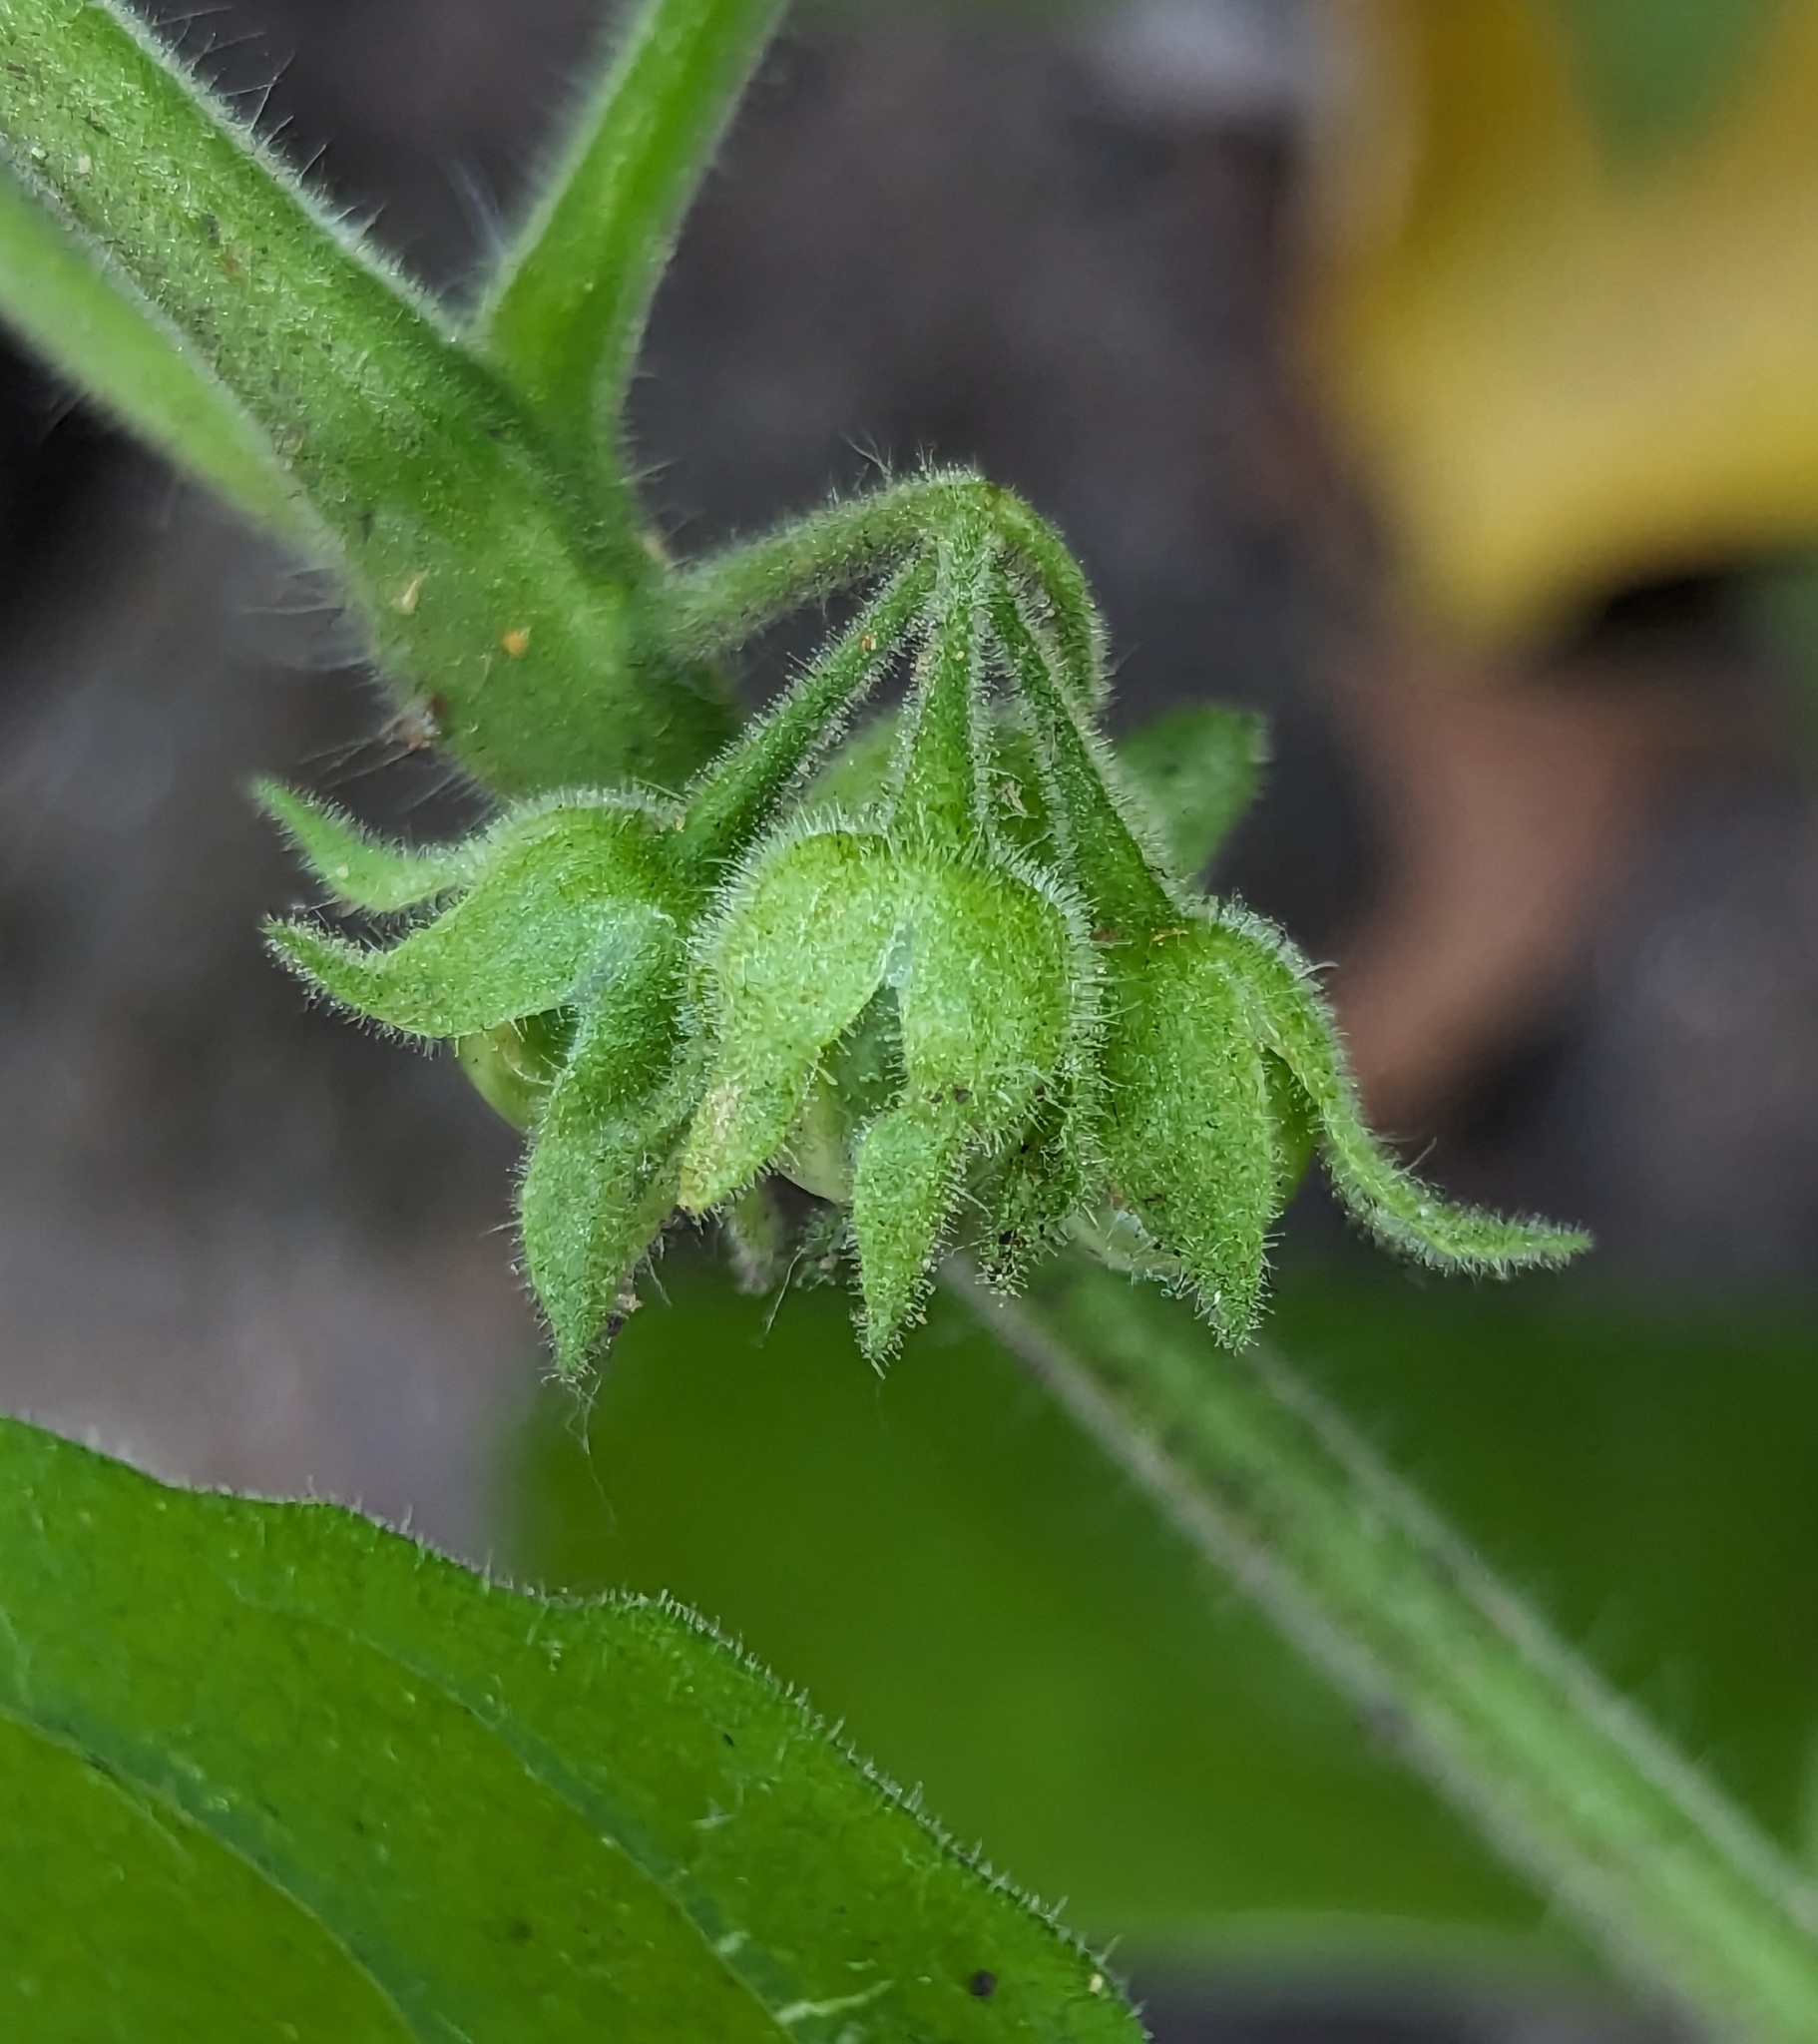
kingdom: Plantae
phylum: Tracheophyta
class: Magnoliopsida
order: Solanales
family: Solanaceae
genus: Solanum
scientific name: Solanum sarrachoides
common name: Leafy-fruited nightshade
